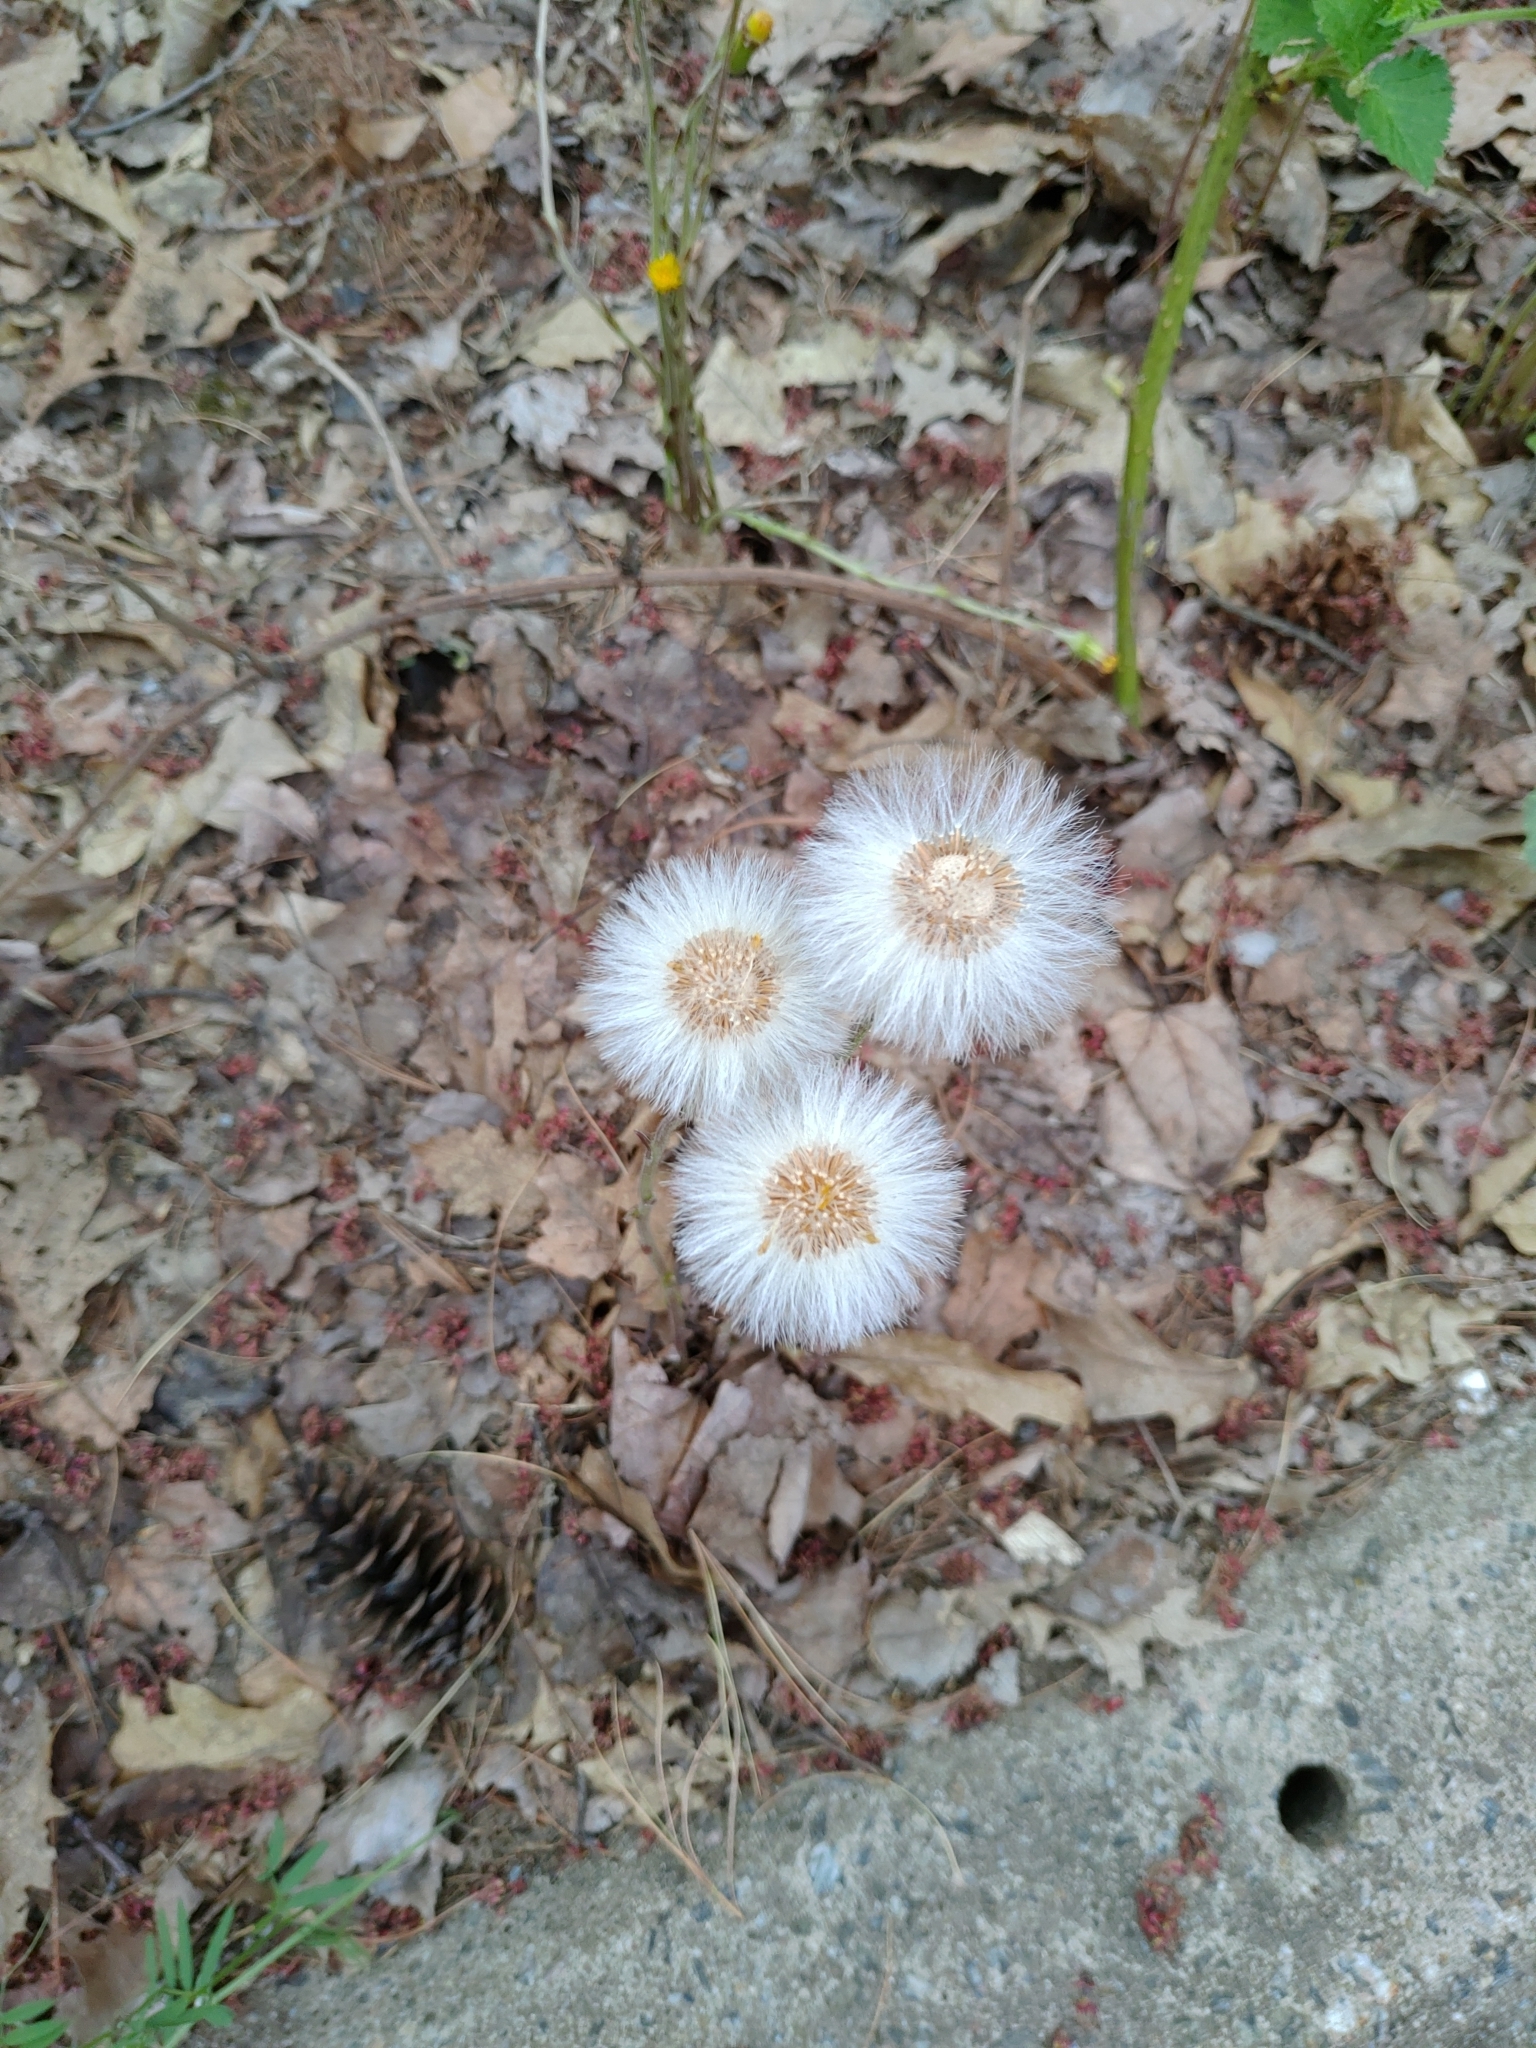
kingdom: Plantae
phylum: Tracheophyta
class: Magnoliopsida
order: Asterales
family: Asteraceae
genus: Tussilago
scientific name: Tussilago farfara
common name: Coltsfoot
